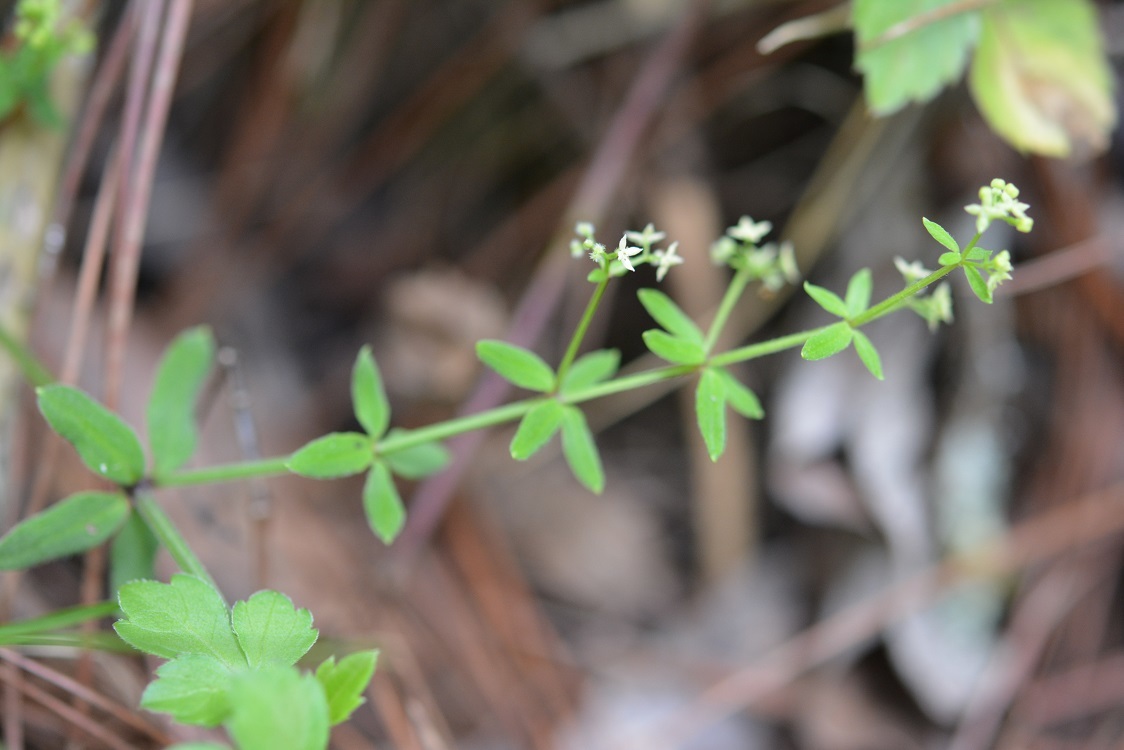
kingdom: Plantae
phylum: Tracheophyta
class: Magnoliopsida
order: Gentianales
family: Rubiaceae
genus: Galium
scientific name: Galium aschenbornii
